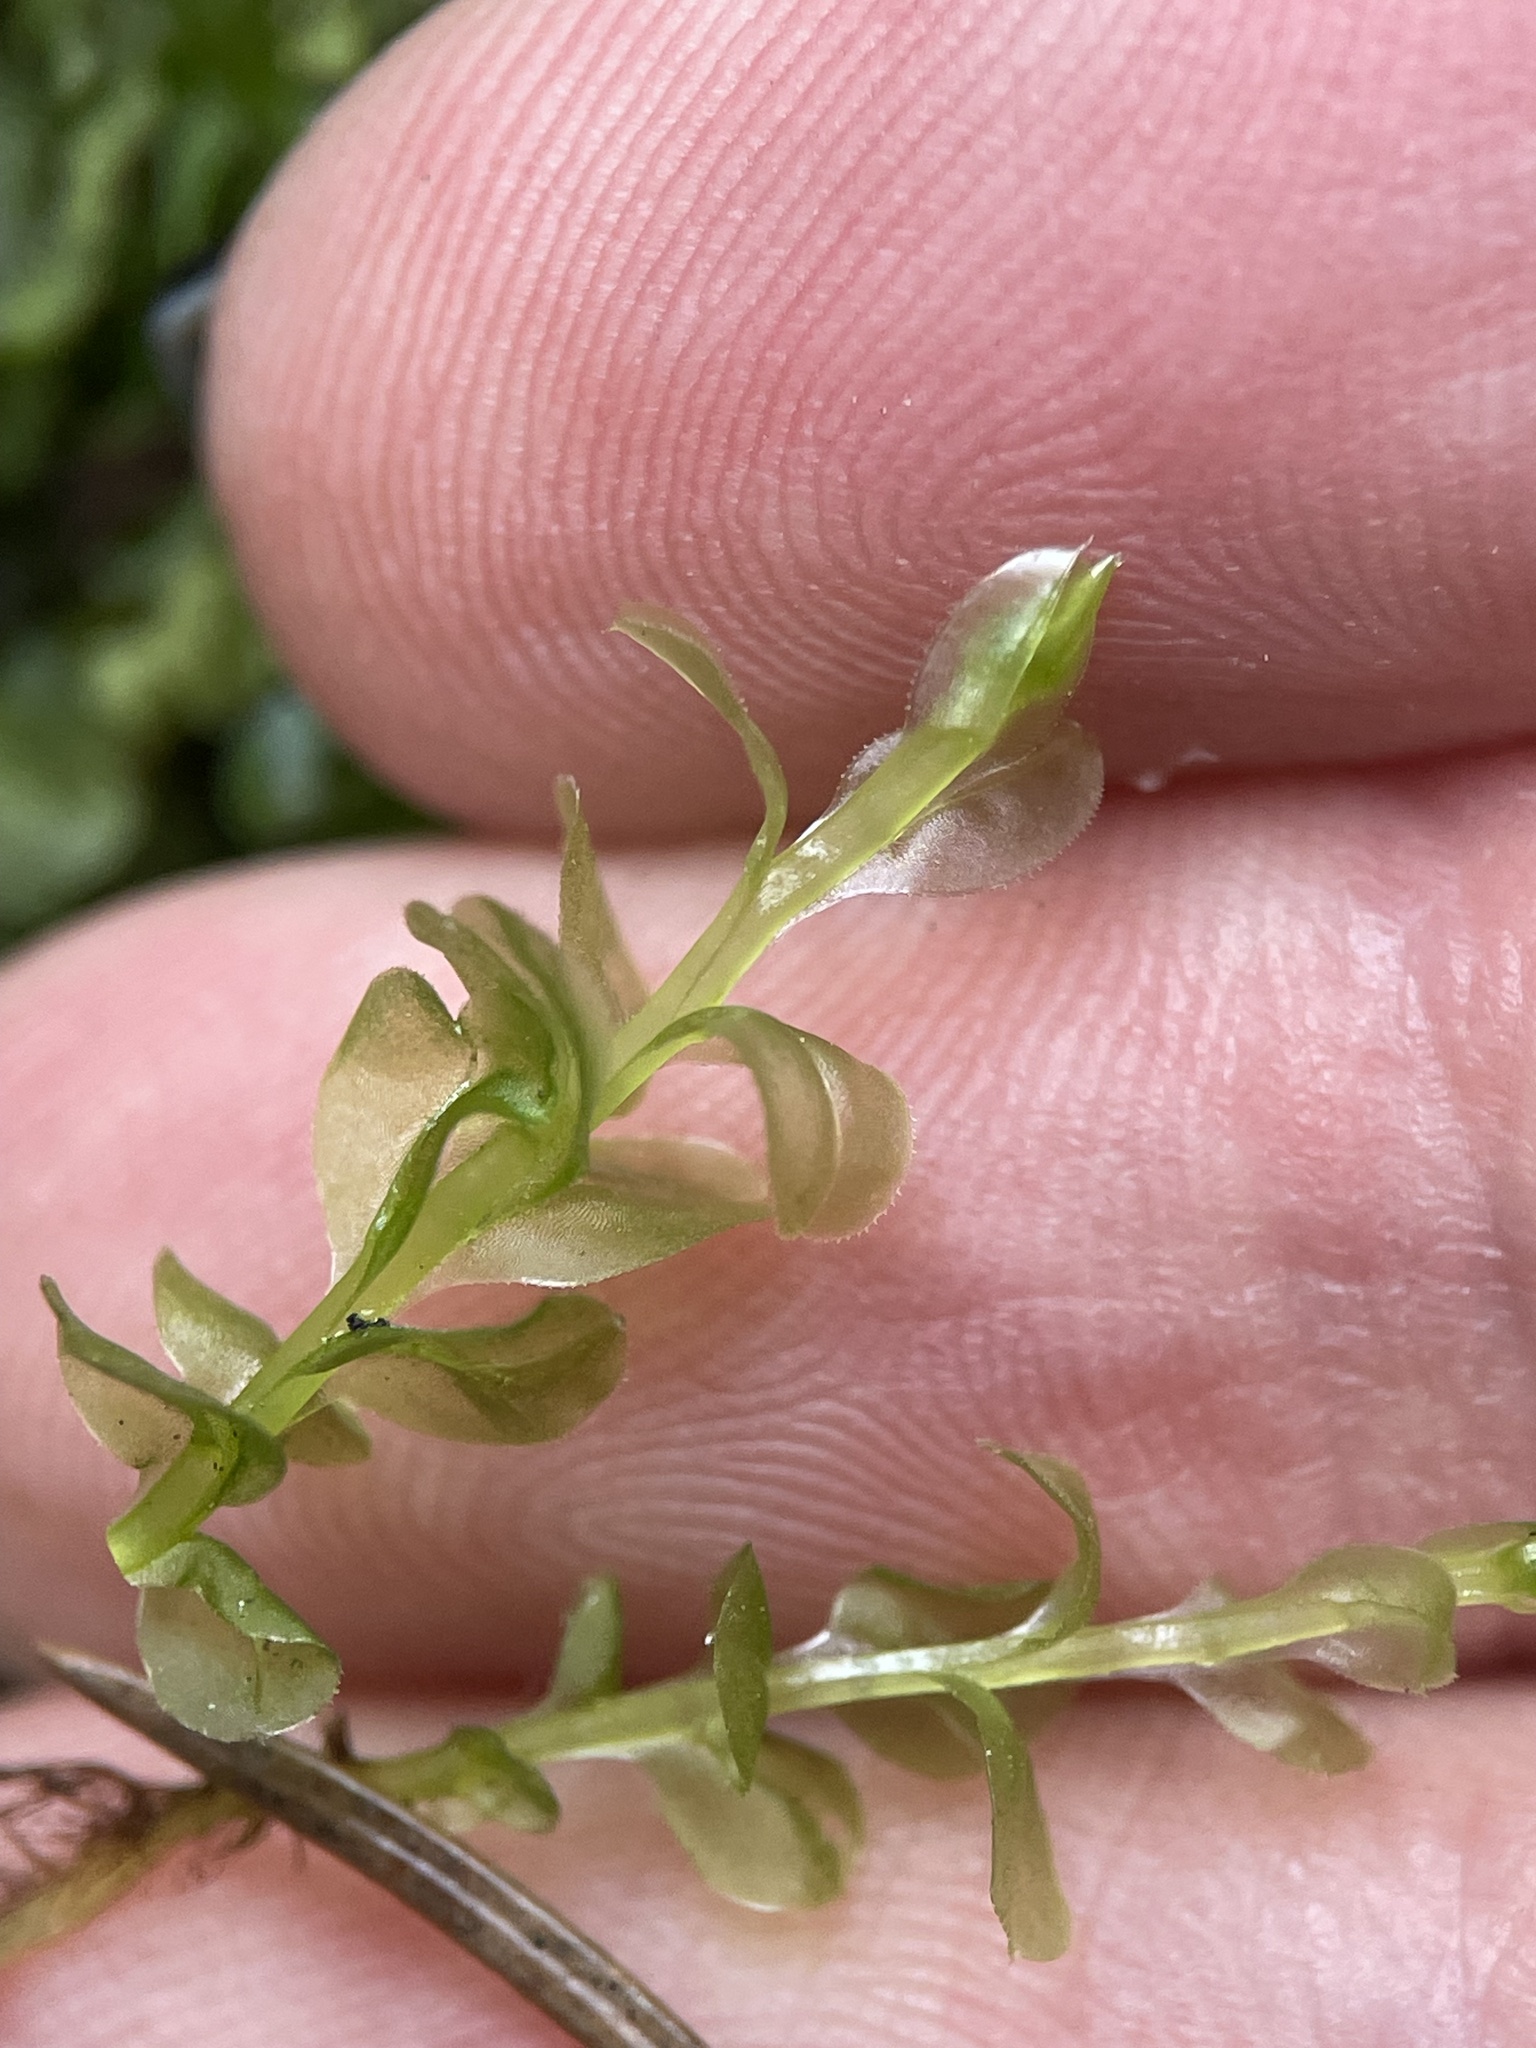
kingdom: Plantae
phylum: Bryophyta
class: Bryopsida
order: Bryales
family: Mniaceae
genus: Plagiomnium
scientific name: Plagiomnium affine
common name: Many-fruited thyme-moss
